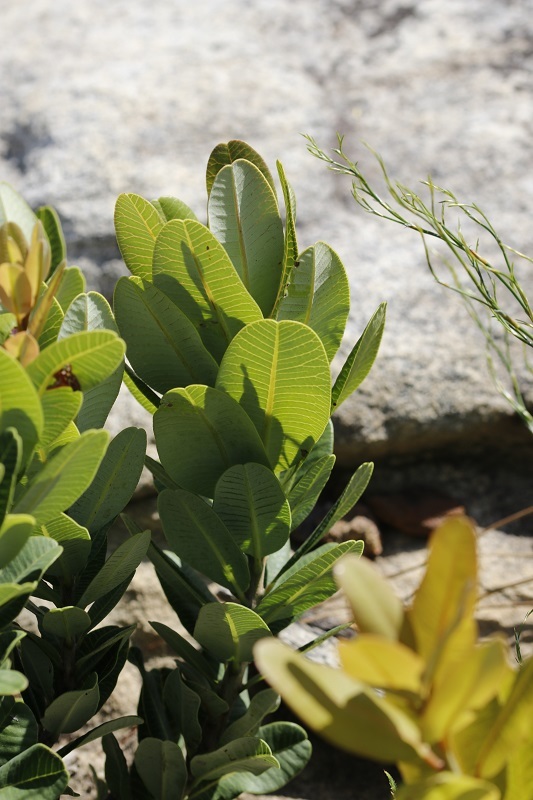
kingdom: Plantae
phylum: Tracheophyta
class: Magnoliopsida
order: Sapindales
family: Anacardiaceae
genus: Heeria
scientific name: Heeria argentea
